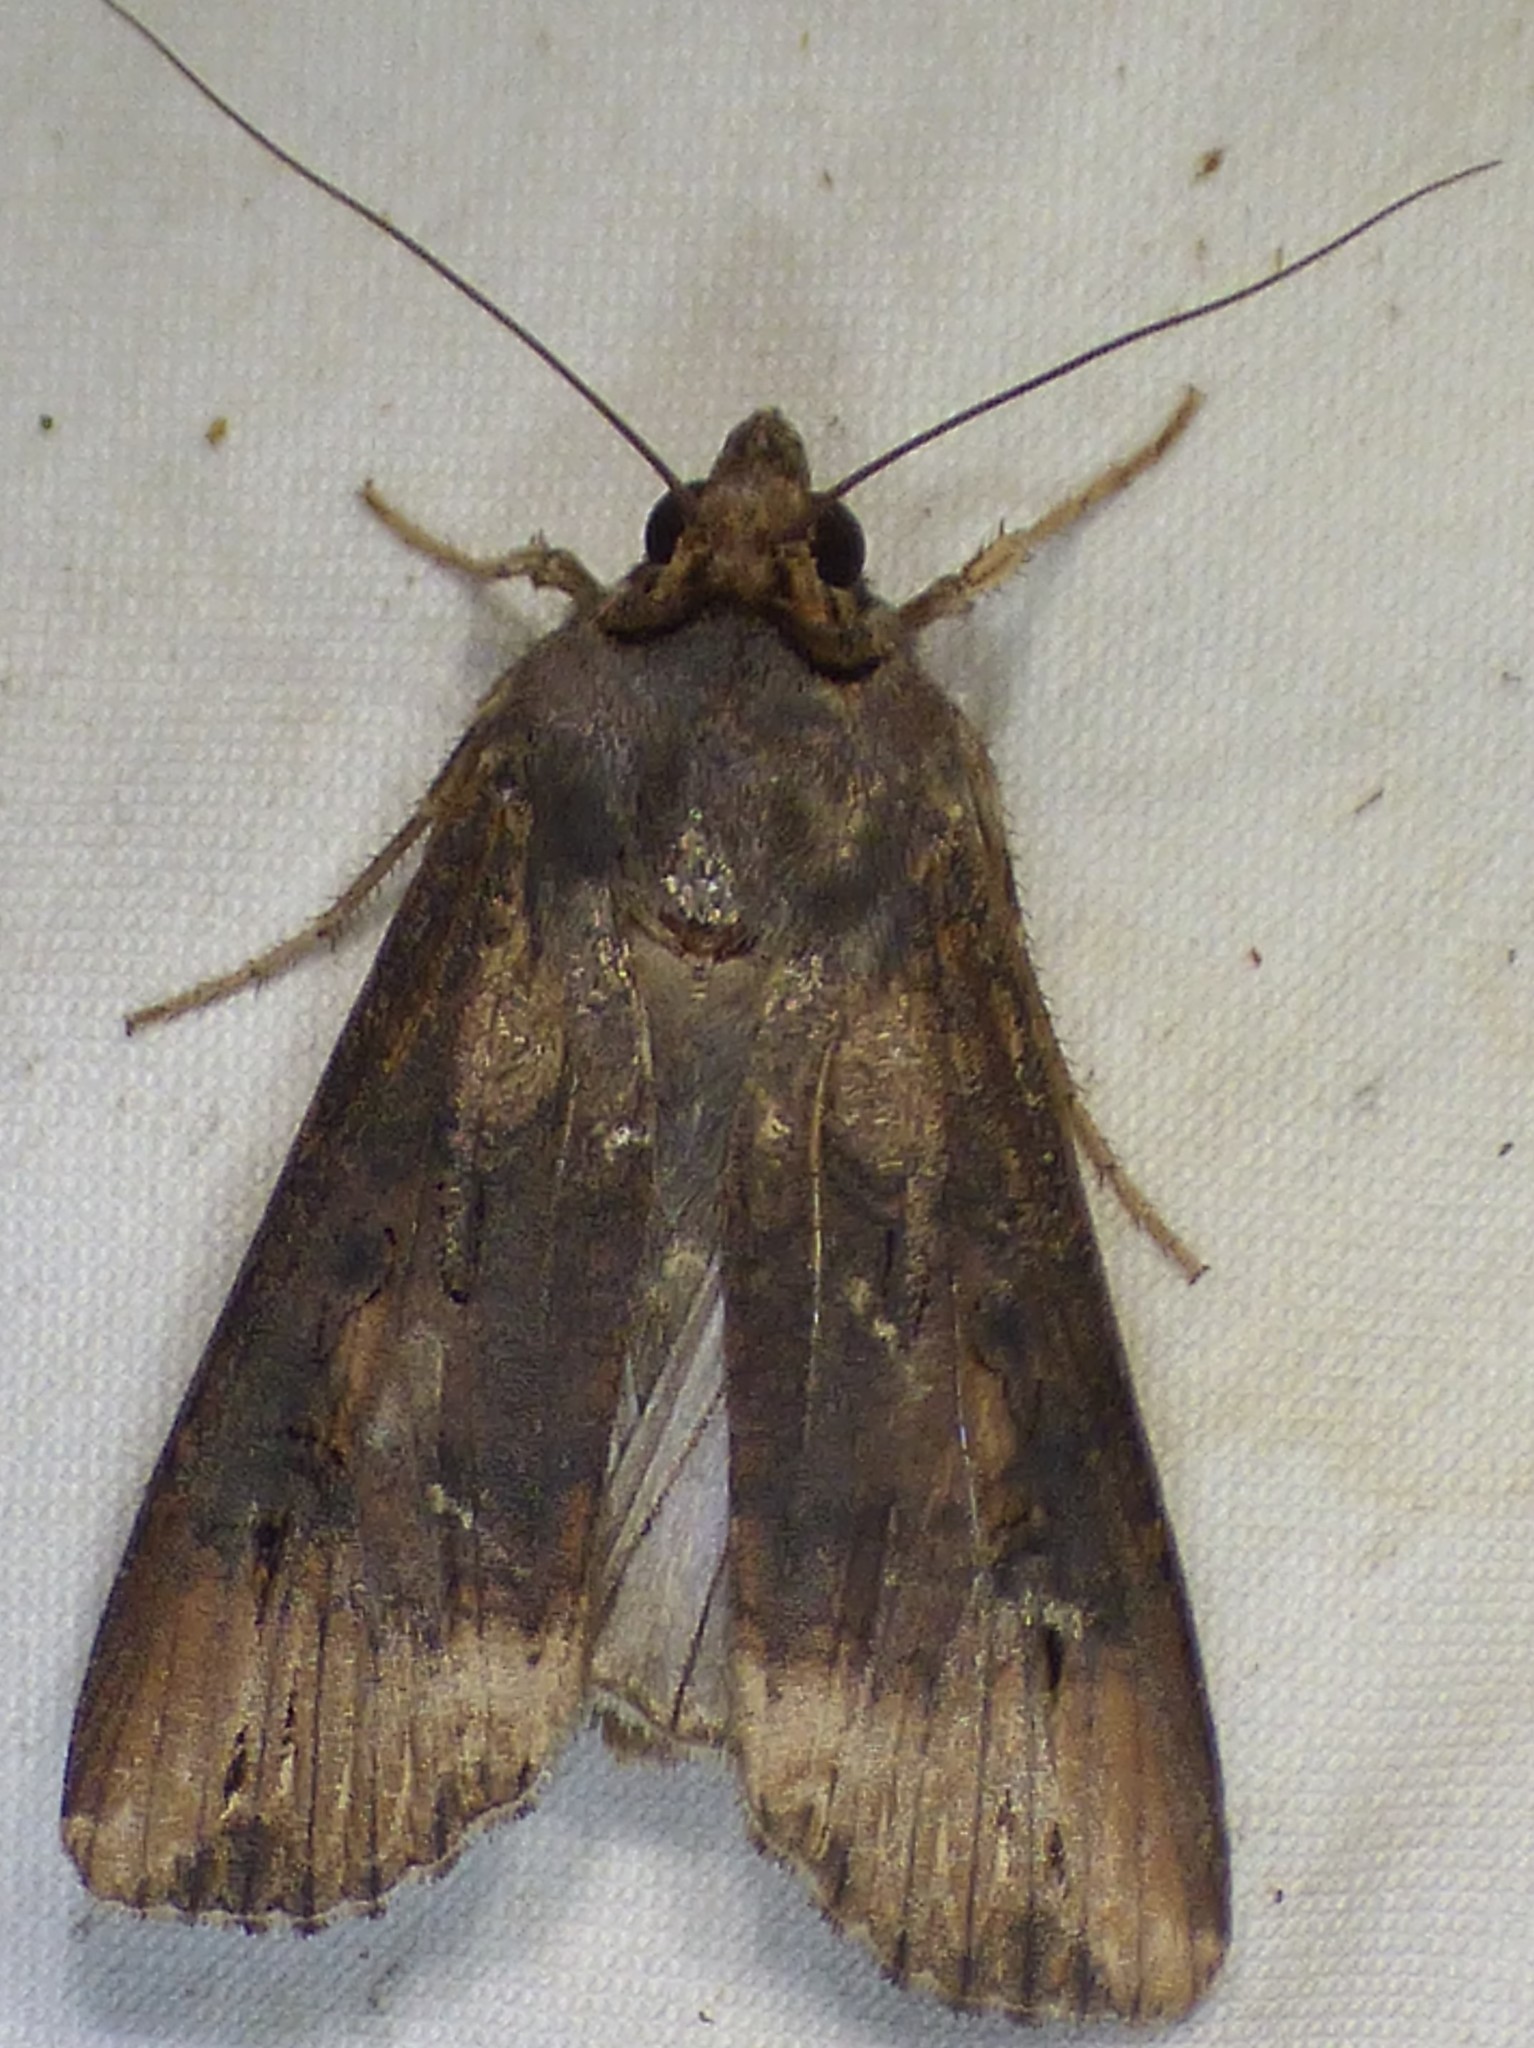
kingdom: Animalia
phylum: Arthropoda
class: Insecta
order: Lepidoptera
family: Noctuidae
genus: Agrotis
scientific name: Agrotis ipsilon
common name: Dark sword-grass
